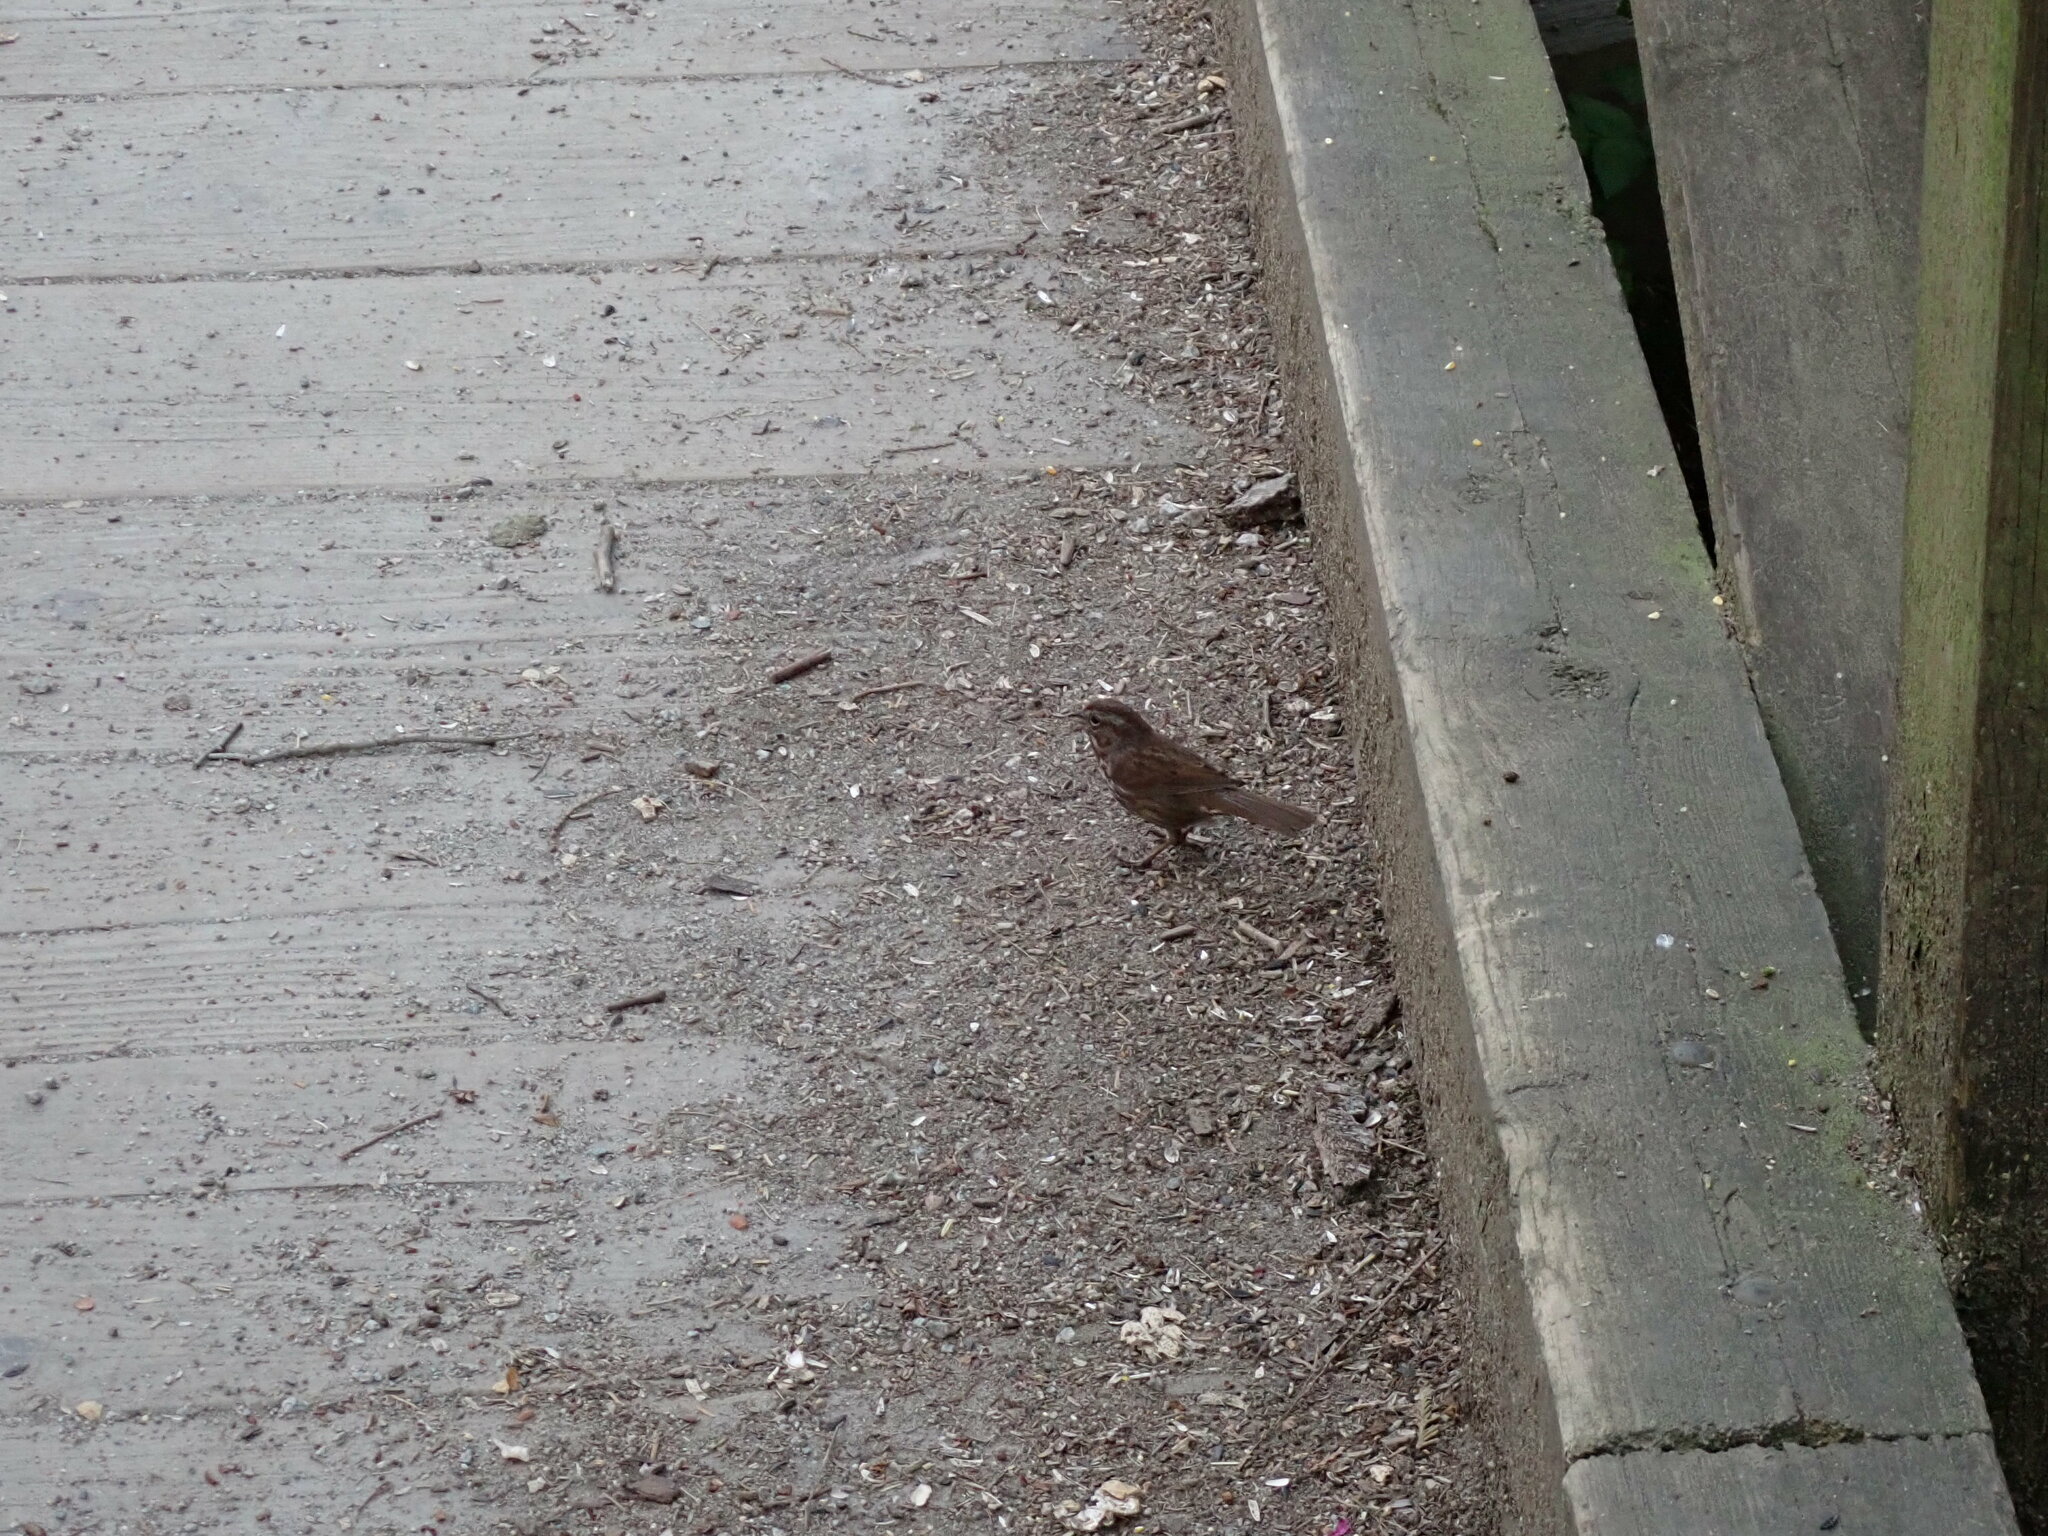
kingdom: Animalia
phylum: Chordata
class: Aves
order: Passeriformes
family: Passerellidae
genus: Melospiza
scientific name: Melospiza melodia
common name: Song sparrow
